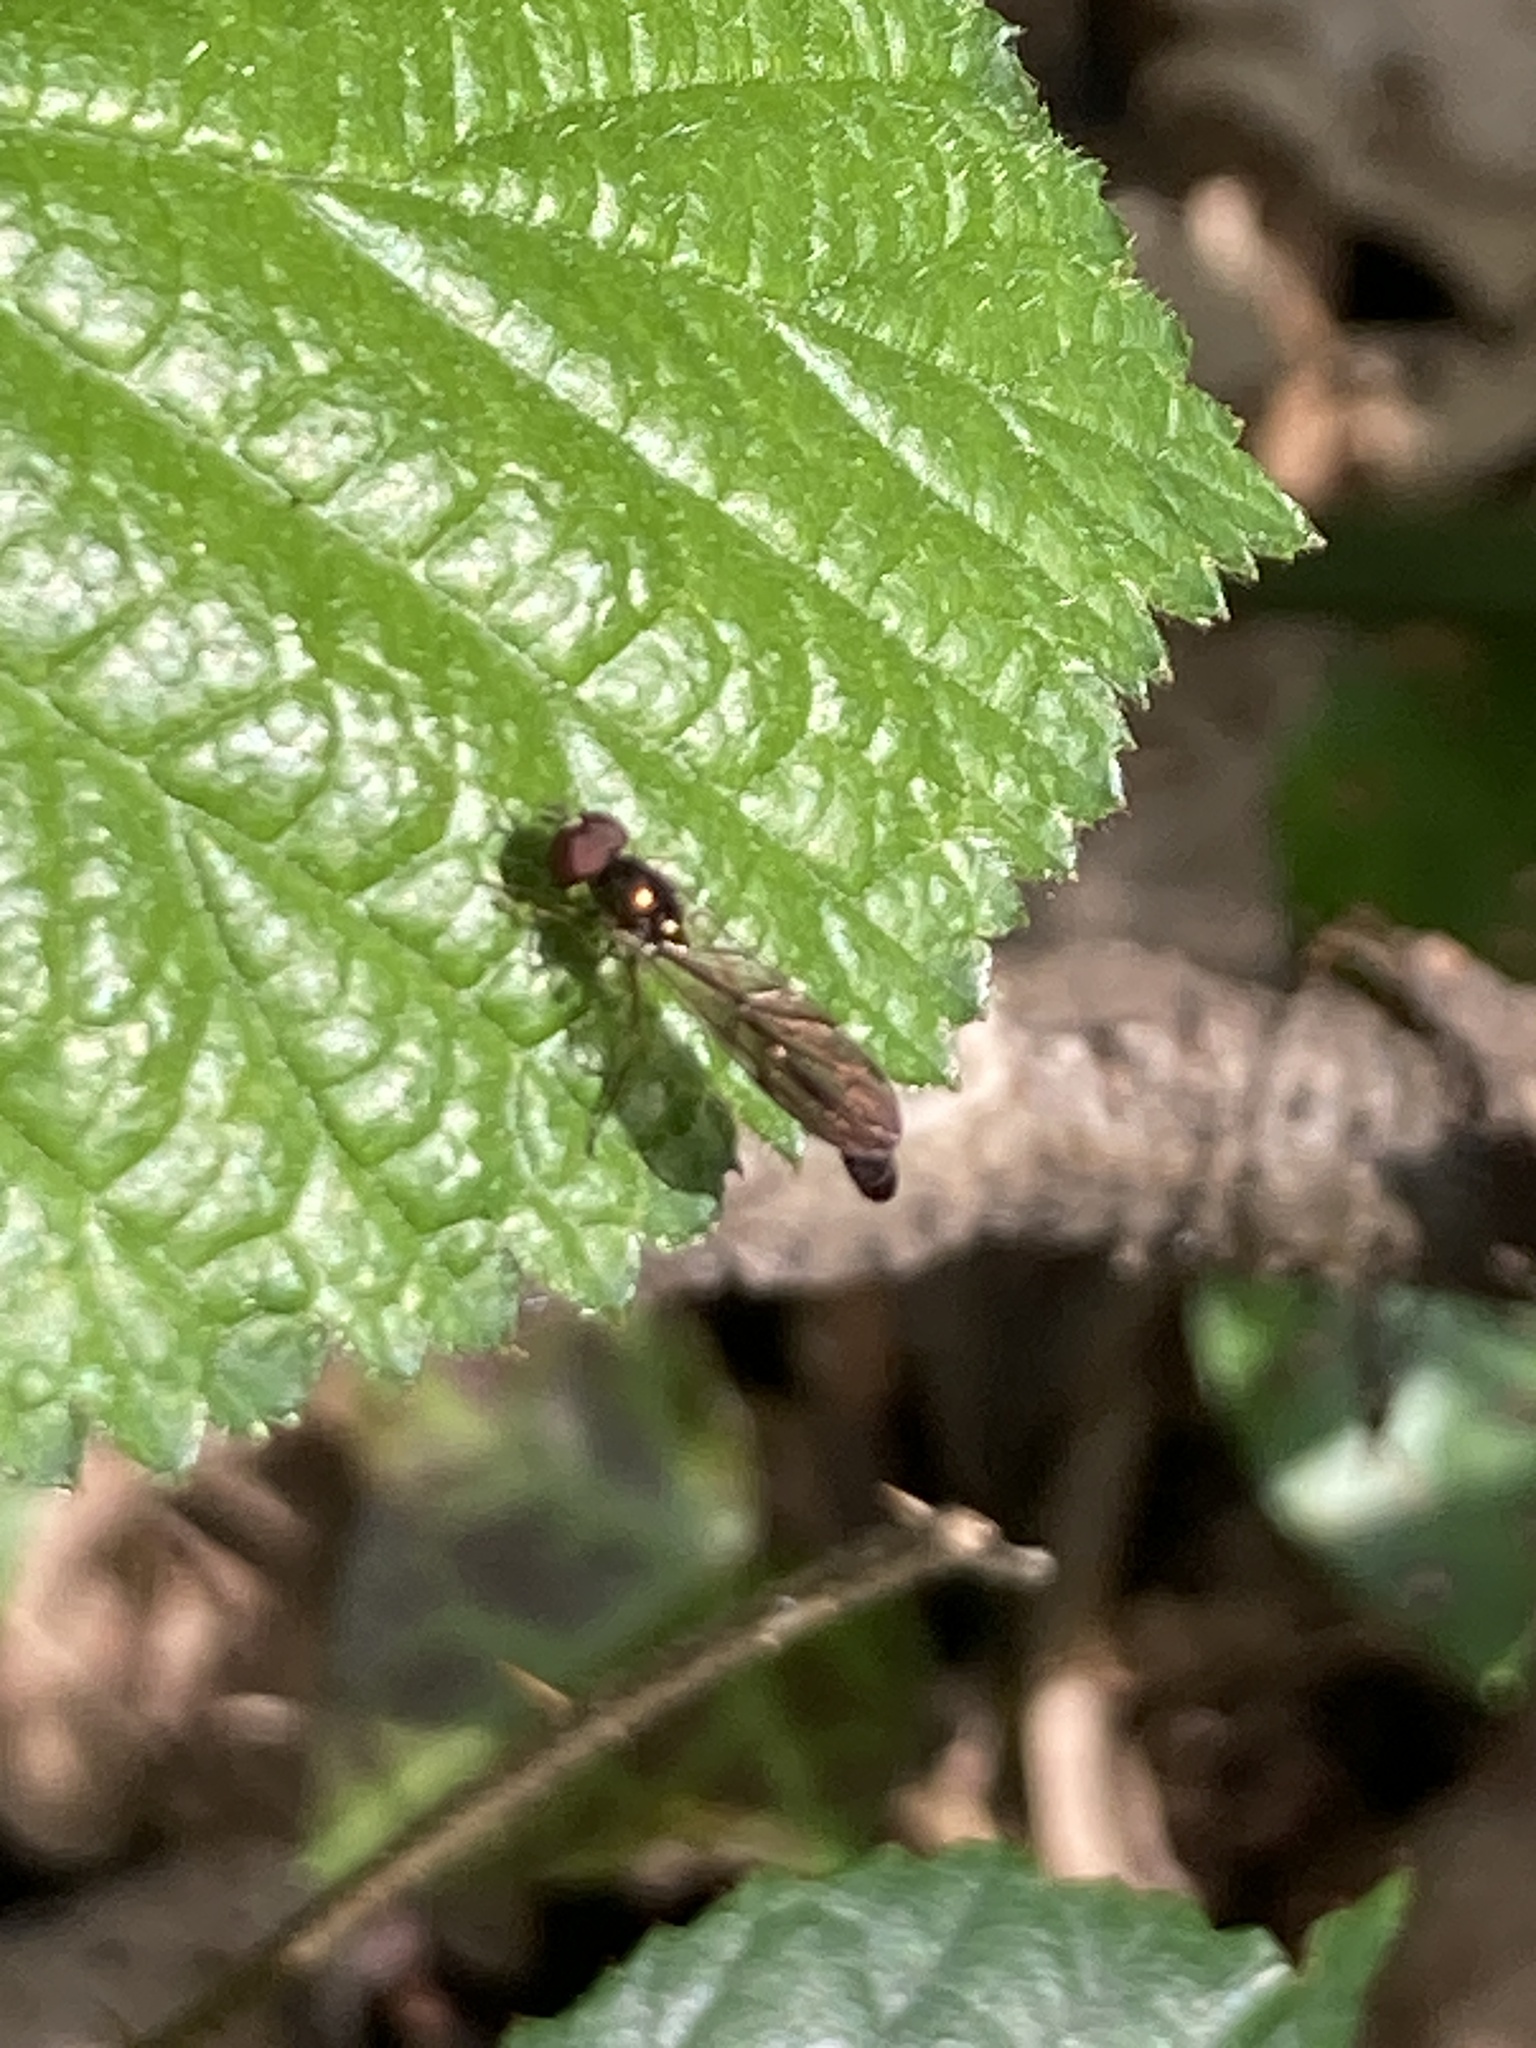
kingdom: Animalia
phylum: Arthropoda
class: Insecta
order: Diptera
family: Syrphidae
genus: Baccha
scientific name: Baccha elongata
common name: Common dainty
